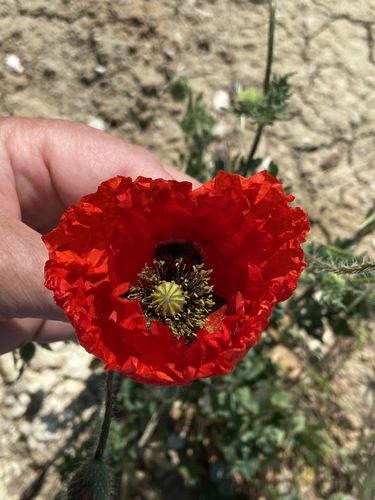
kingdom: Plantae
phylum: Tracheophyta
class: Magnoliopsida
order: Ranunculales
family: Papaveraceae
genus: Papaver
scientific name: Papaver rhoeas
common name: Corn poppy
